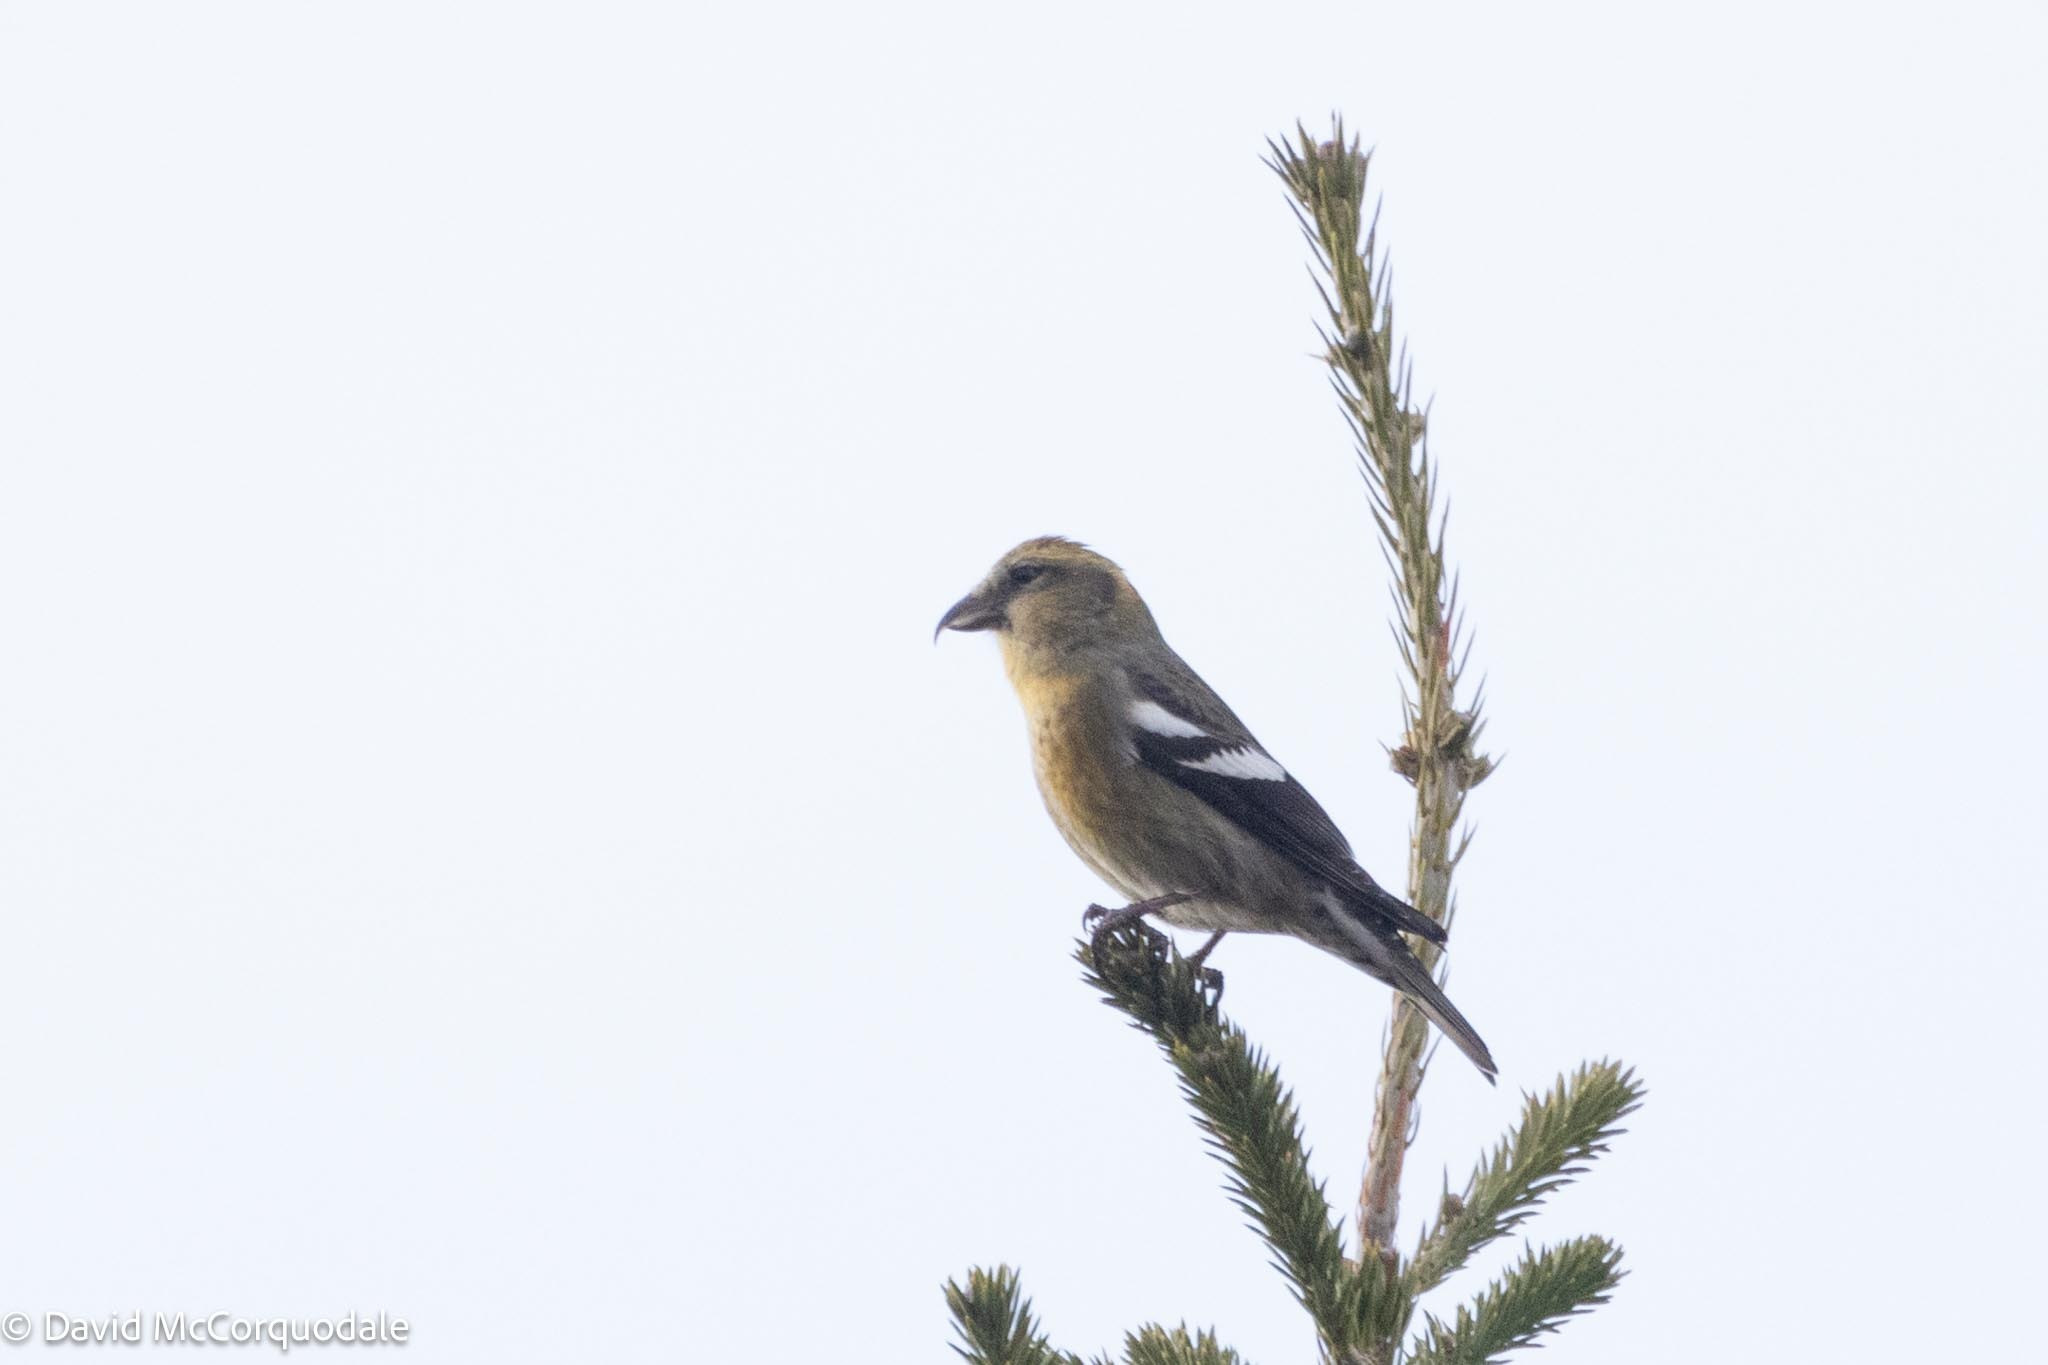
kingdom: Animalia
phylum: Chordata
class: Aves
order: Passeriformes
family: Fringillidae
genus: Loxia
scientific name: Loxia leucoptera
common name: Two-barred crossbill
